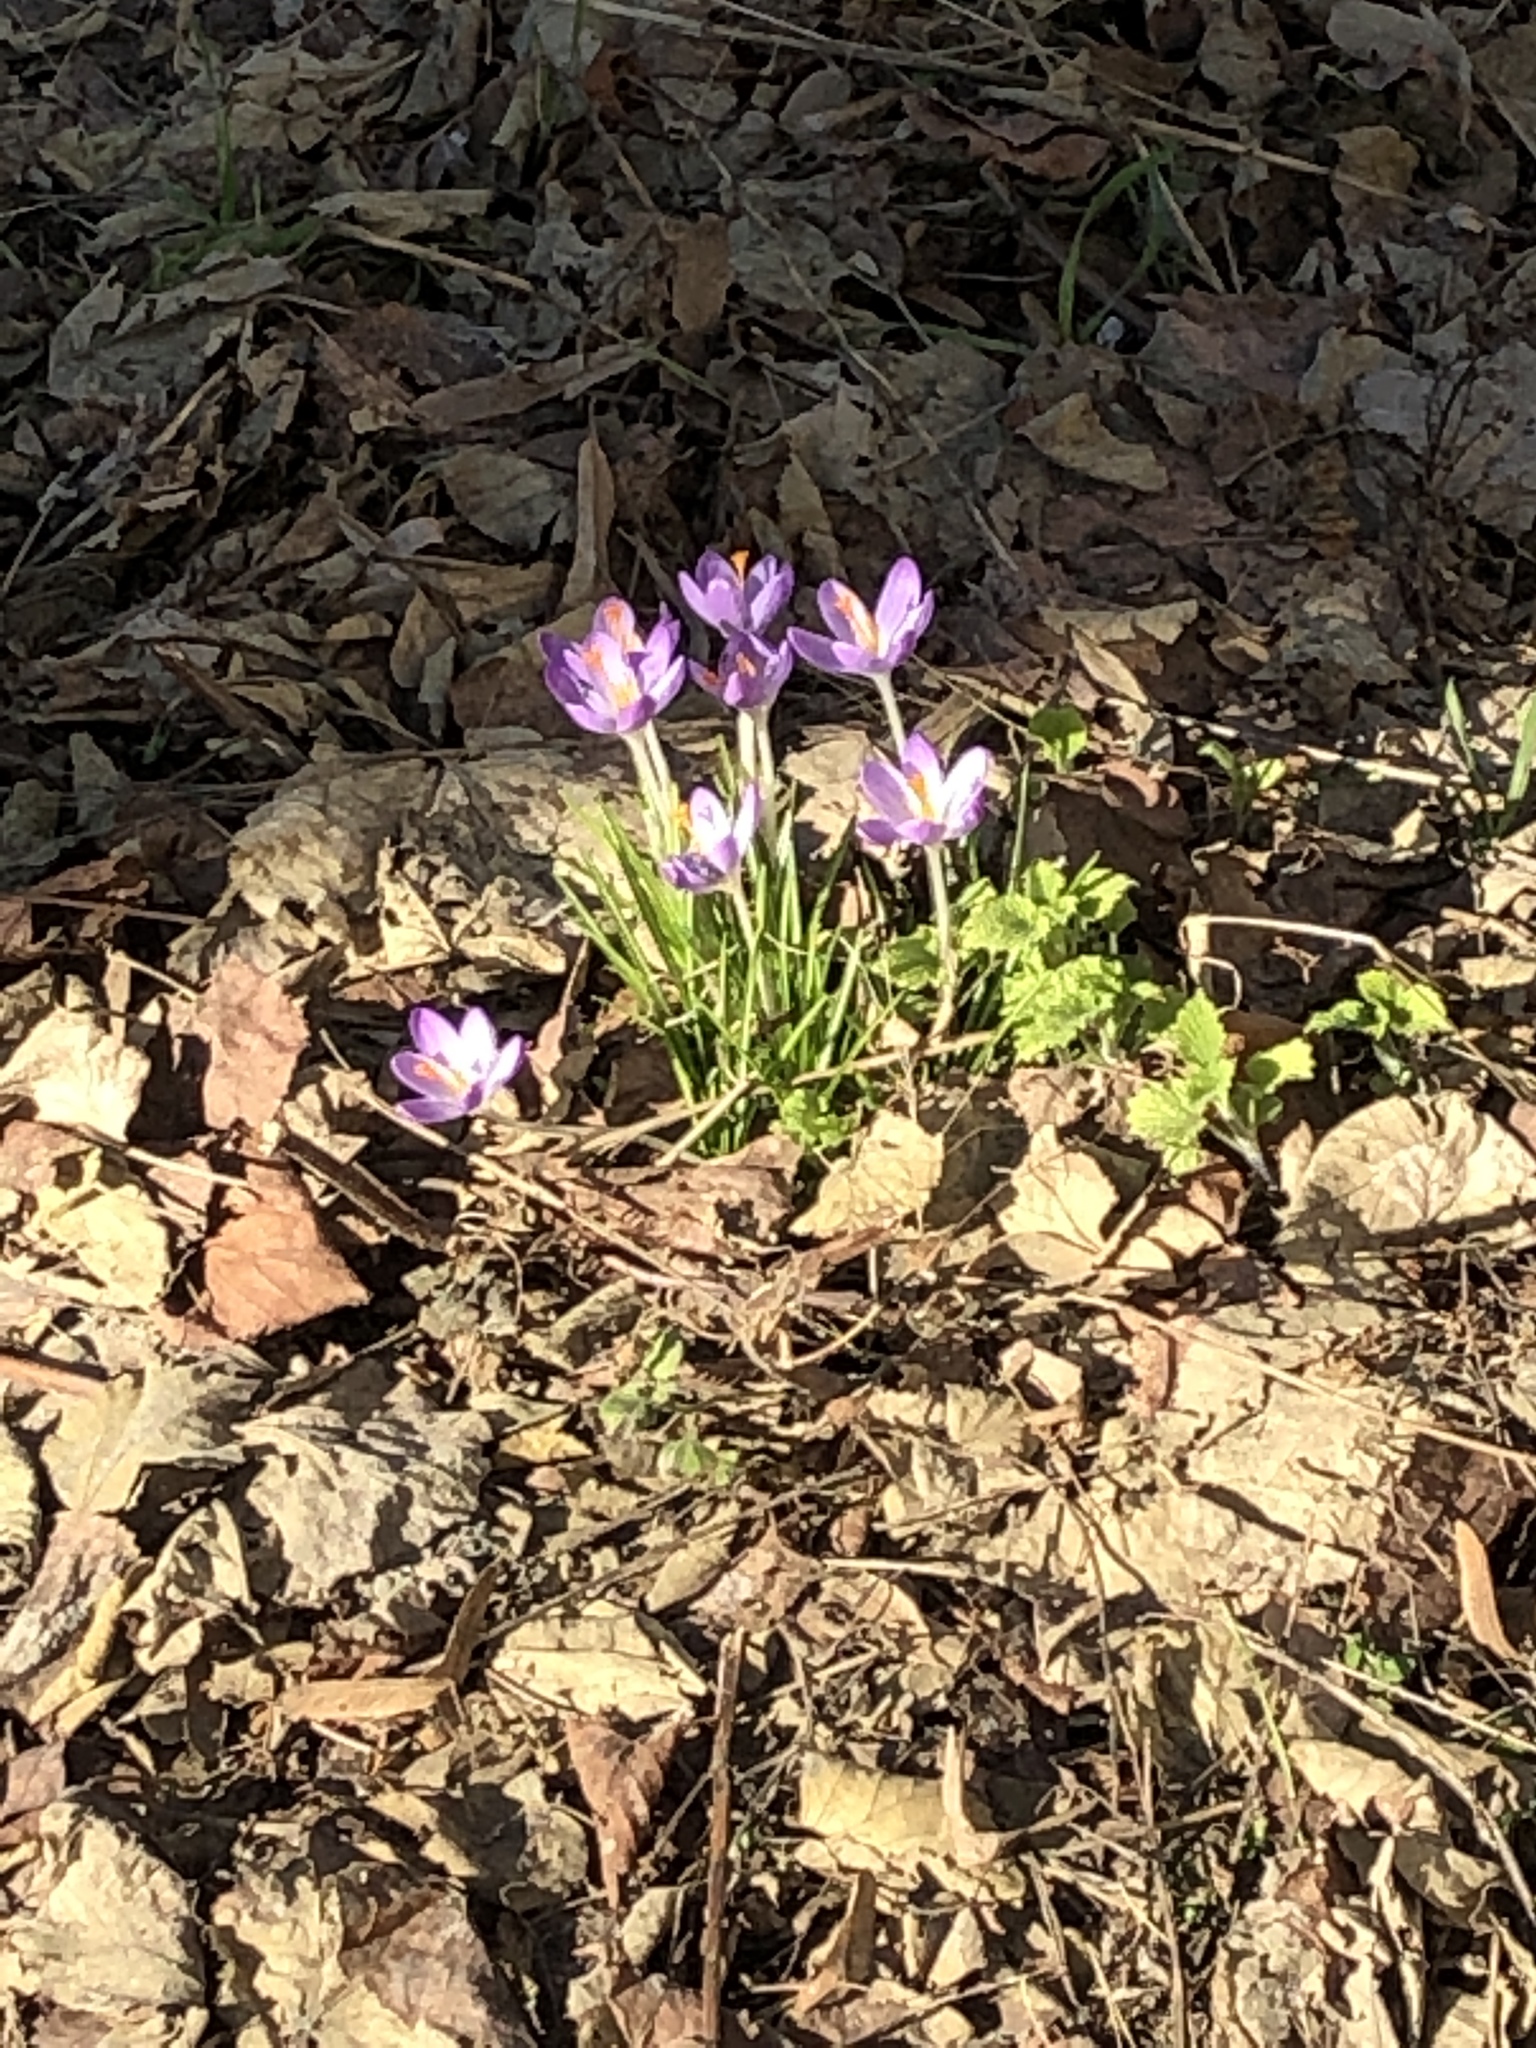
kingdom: Plantae
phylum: Tracheophyta
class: Liliopsida
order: Asparagales
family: Iridaceae
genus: Crocus
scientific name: Crocus tommasinianus
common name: Early crocus
